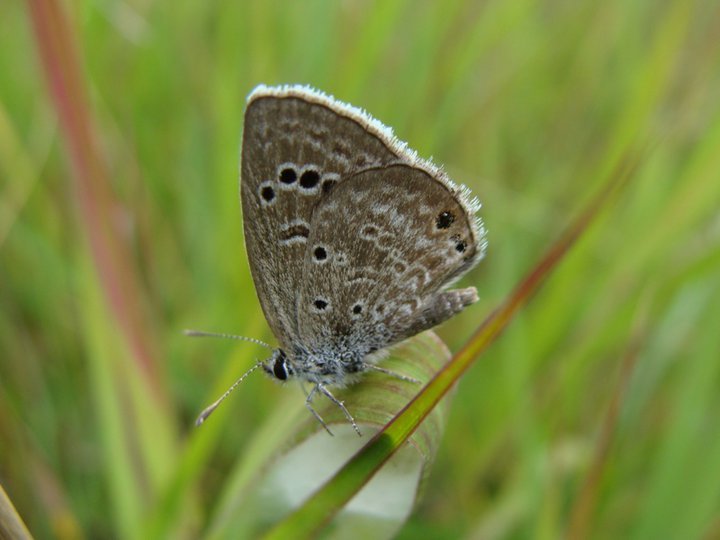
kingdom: Animalia
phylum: Arthropoda
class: Insecta
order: Lepidoptera
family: Lycaenidae
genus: Echinargus
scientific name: Echinargus isola
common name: Reakirt's blue
